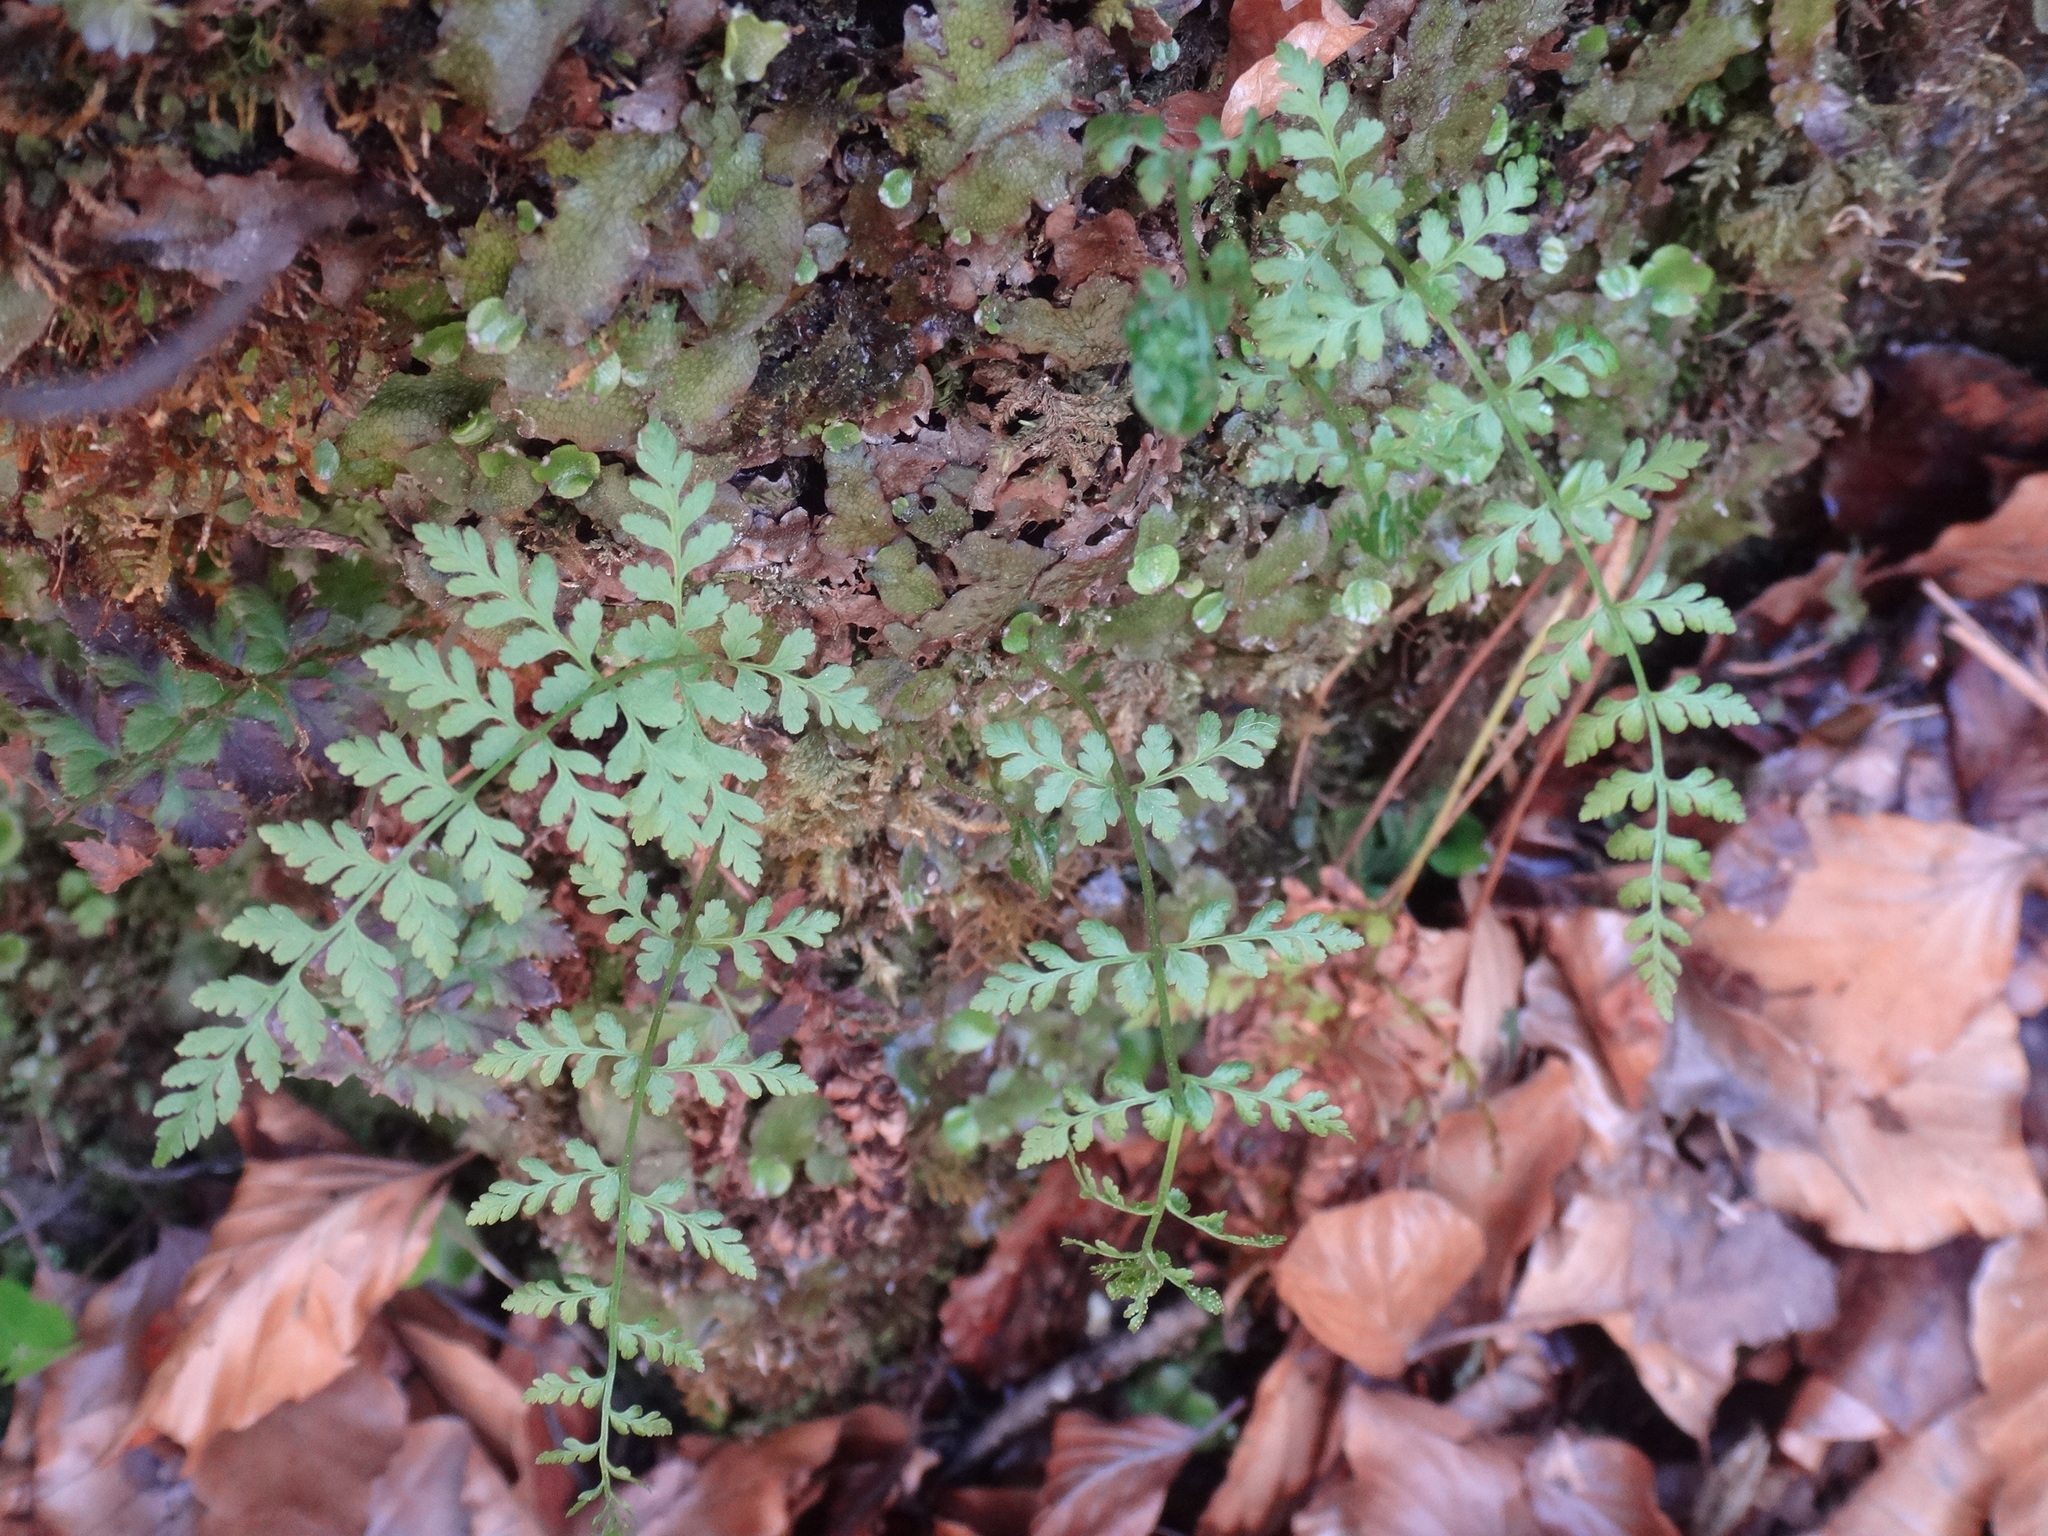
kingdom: Plantae
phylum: Tracheophyta
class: Polypodiopsida
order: Polypodiales
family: Cystopteridaceae
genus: Cystopteris
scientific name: Cystopteris fragilis
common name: Brittle bladder fern
